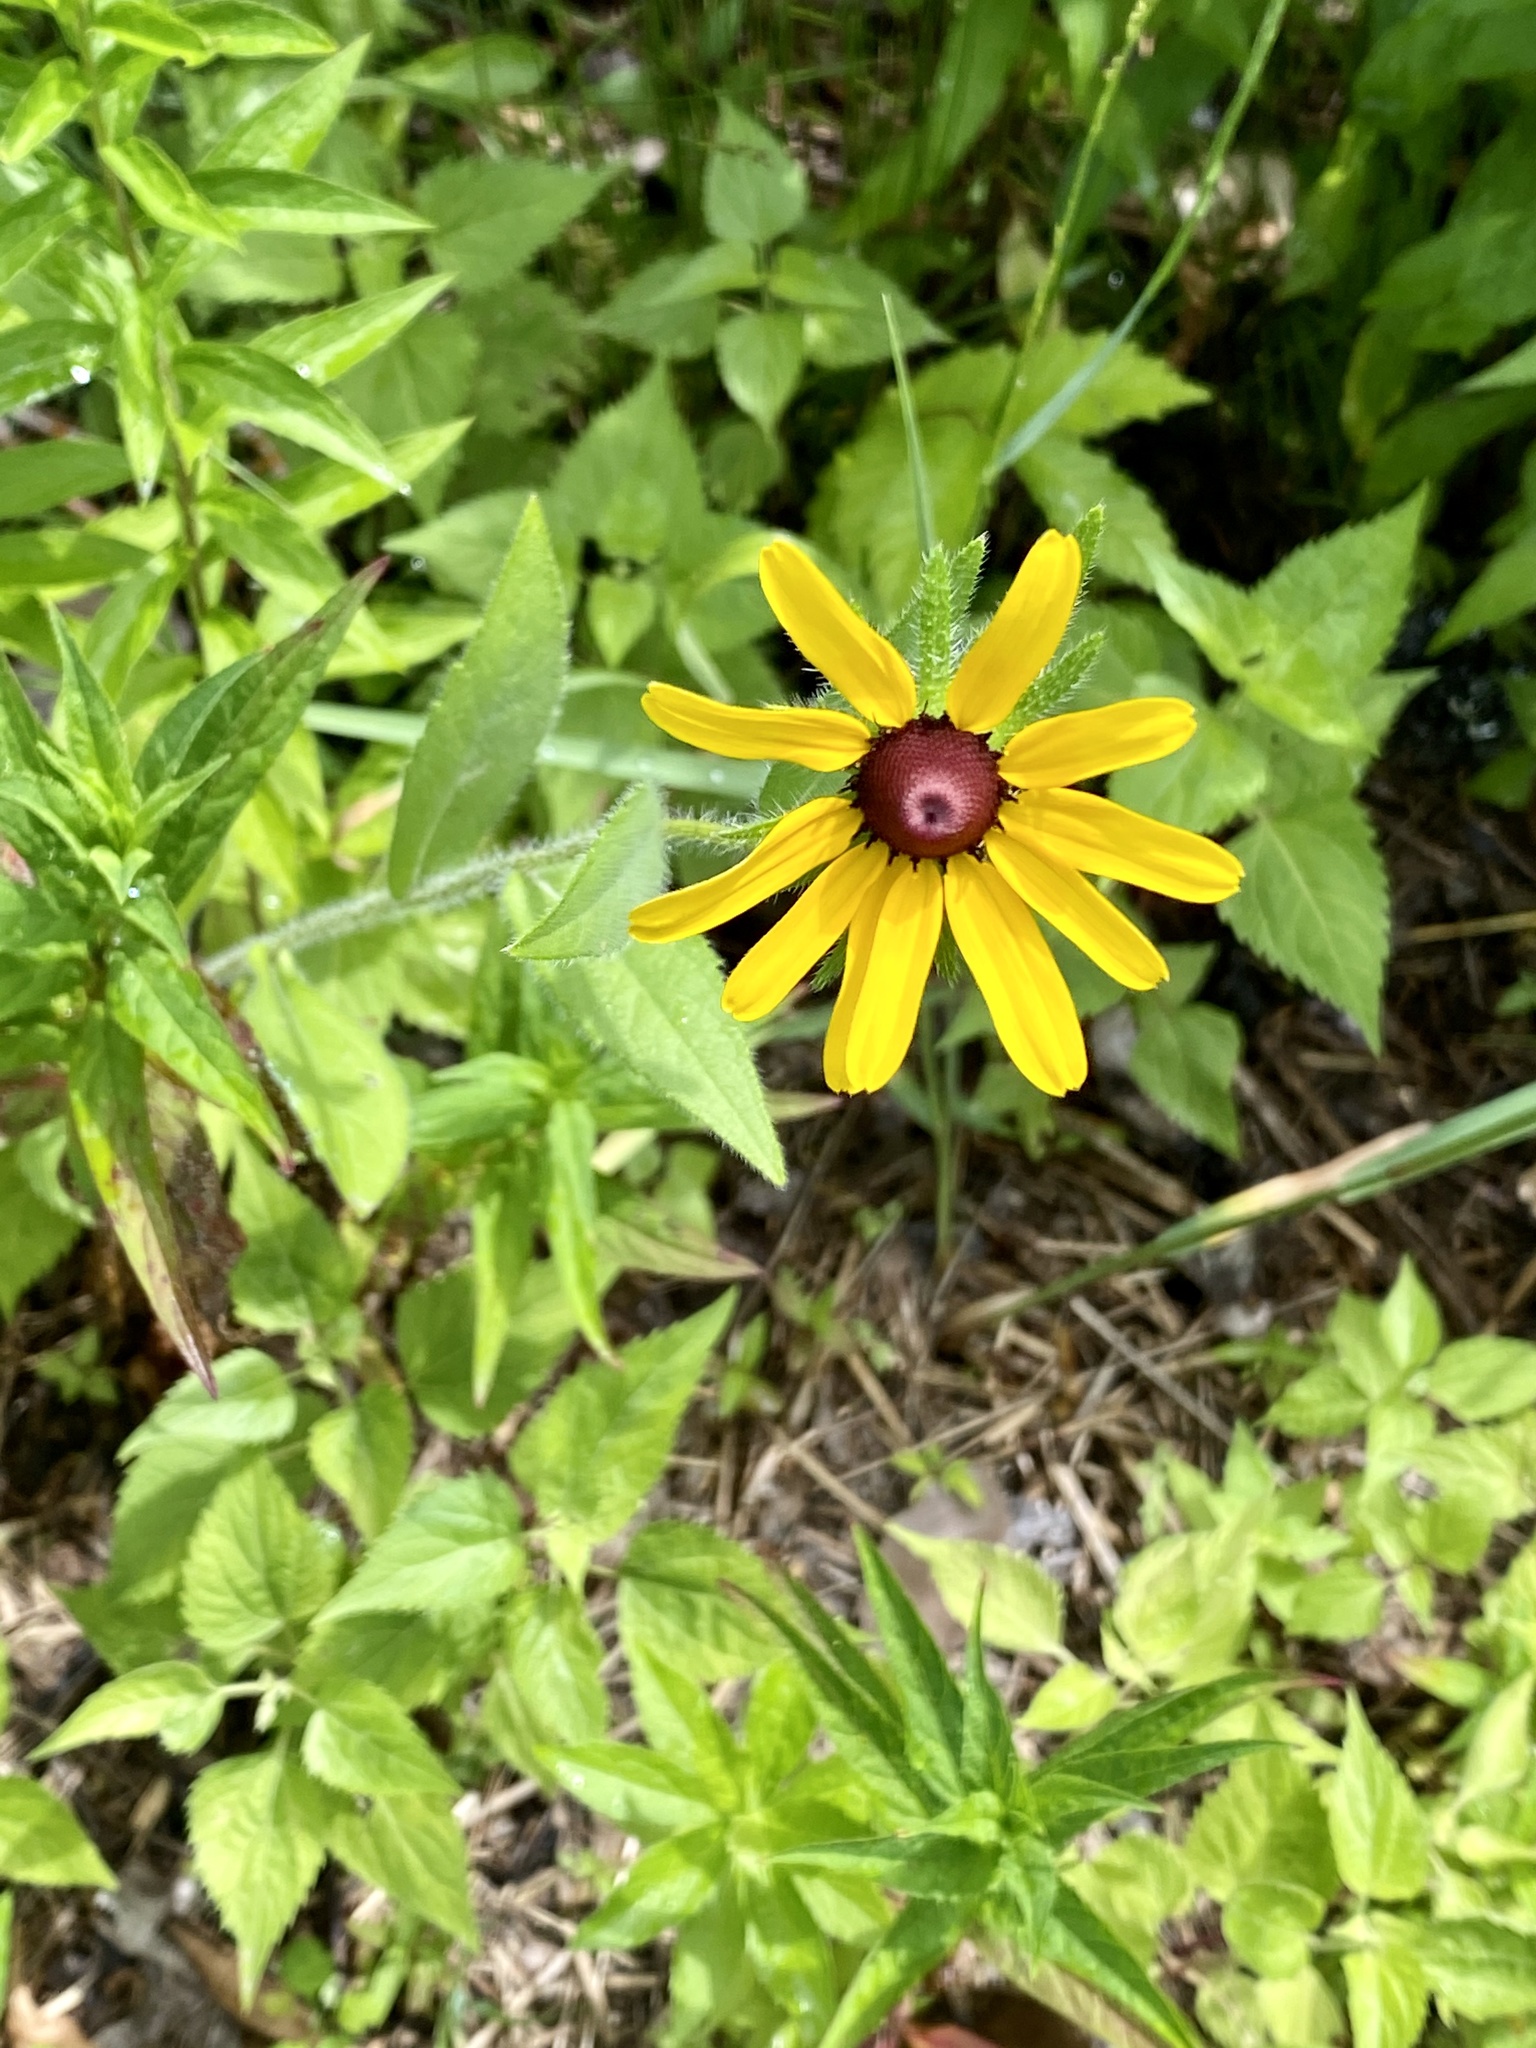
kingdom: Plantae
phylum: Tracheophyta
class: Magnoliopsida
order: Asterales
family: Asteraceae
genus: Rudbeckia
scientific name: Rudbeckia hirta
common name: Black-eyed-susan
